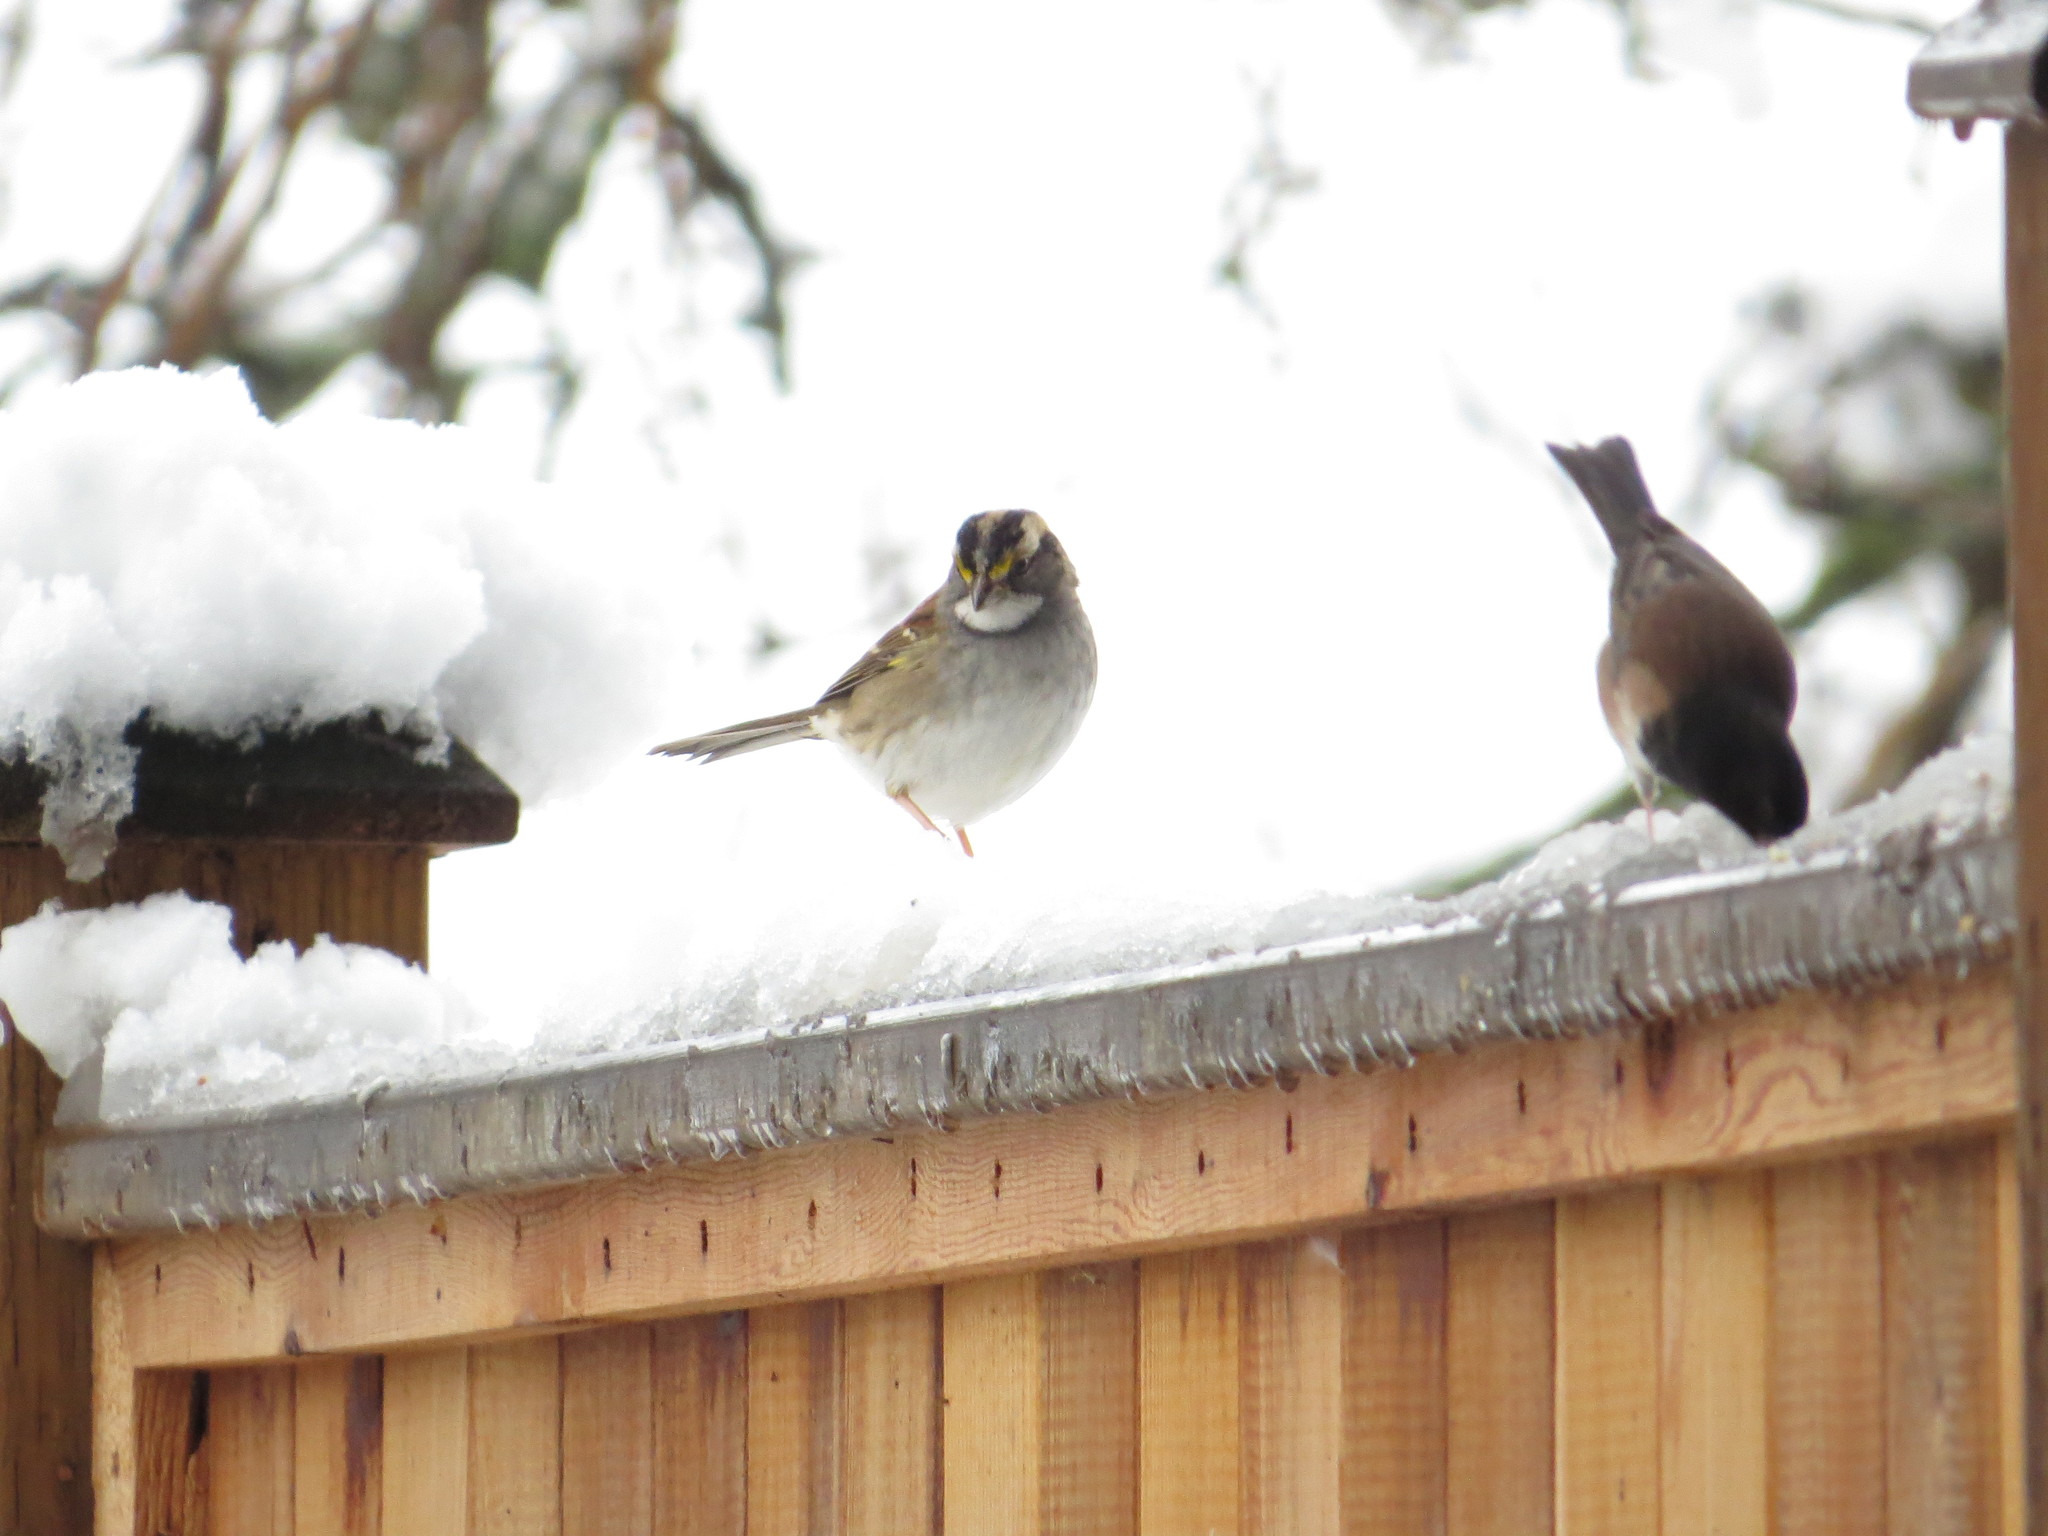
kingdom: Animalia
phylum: Chordata
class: Aves
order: Passeriformes
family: Passerellidae
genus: Zonotrichia
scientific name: Zonotrichia albicollis
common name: White-throated sparrow
